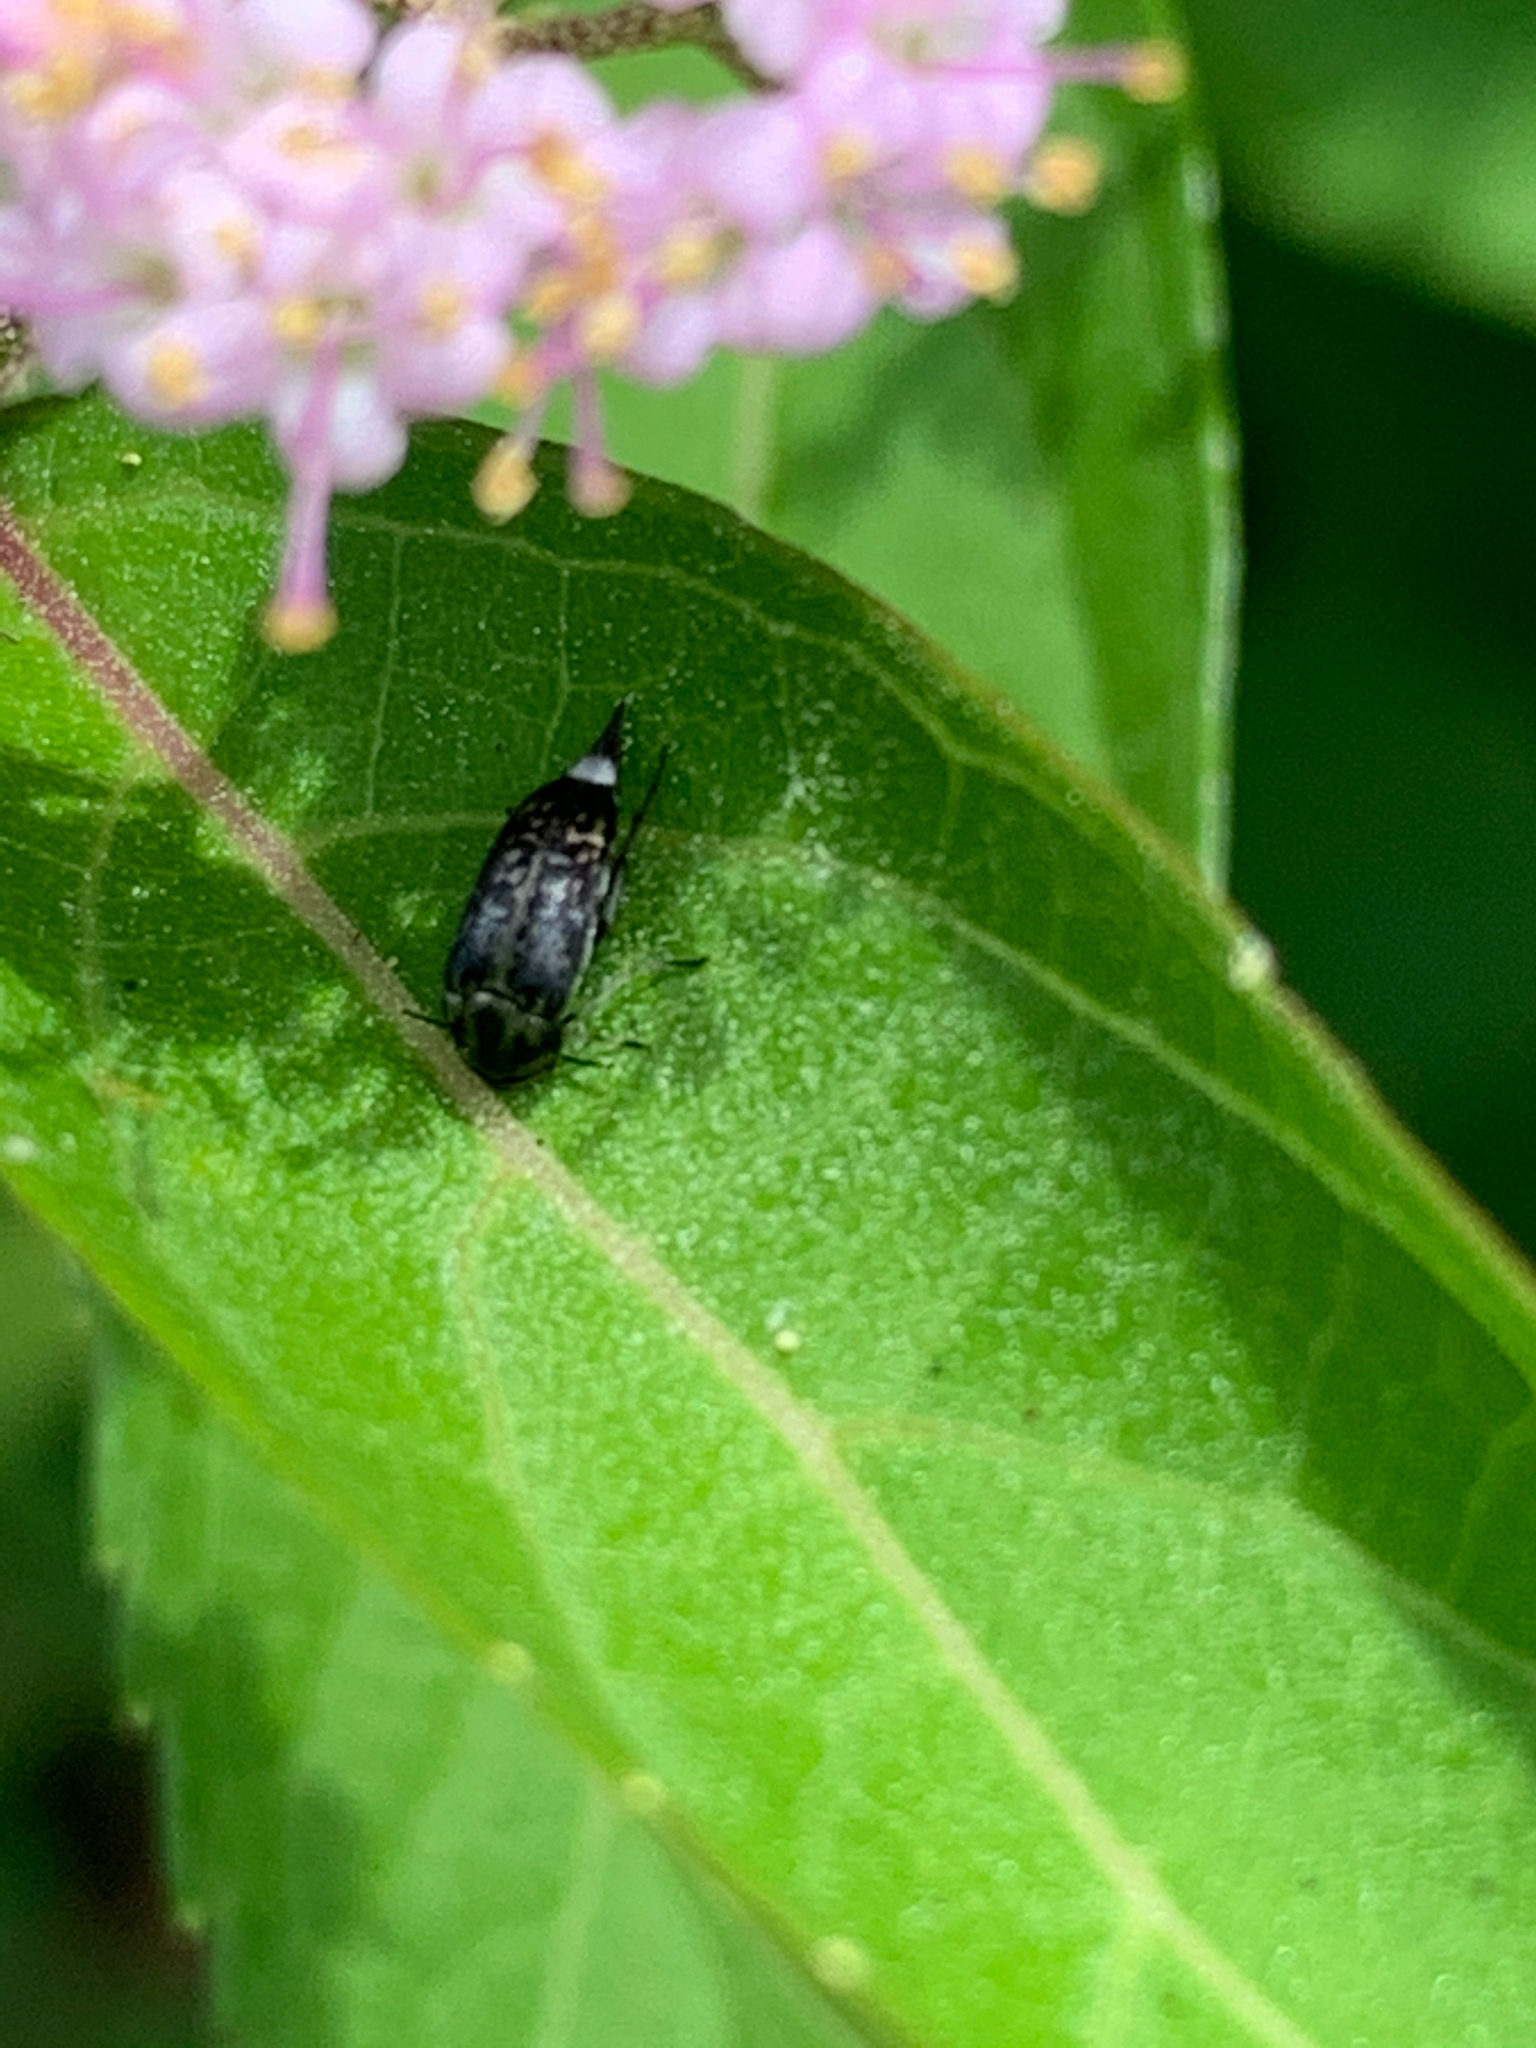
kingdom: Animalia
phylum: Arthropoda
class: Insecta
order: Coleoptera
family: Mordellidae
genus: Mordella
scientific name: Mordella marginata
